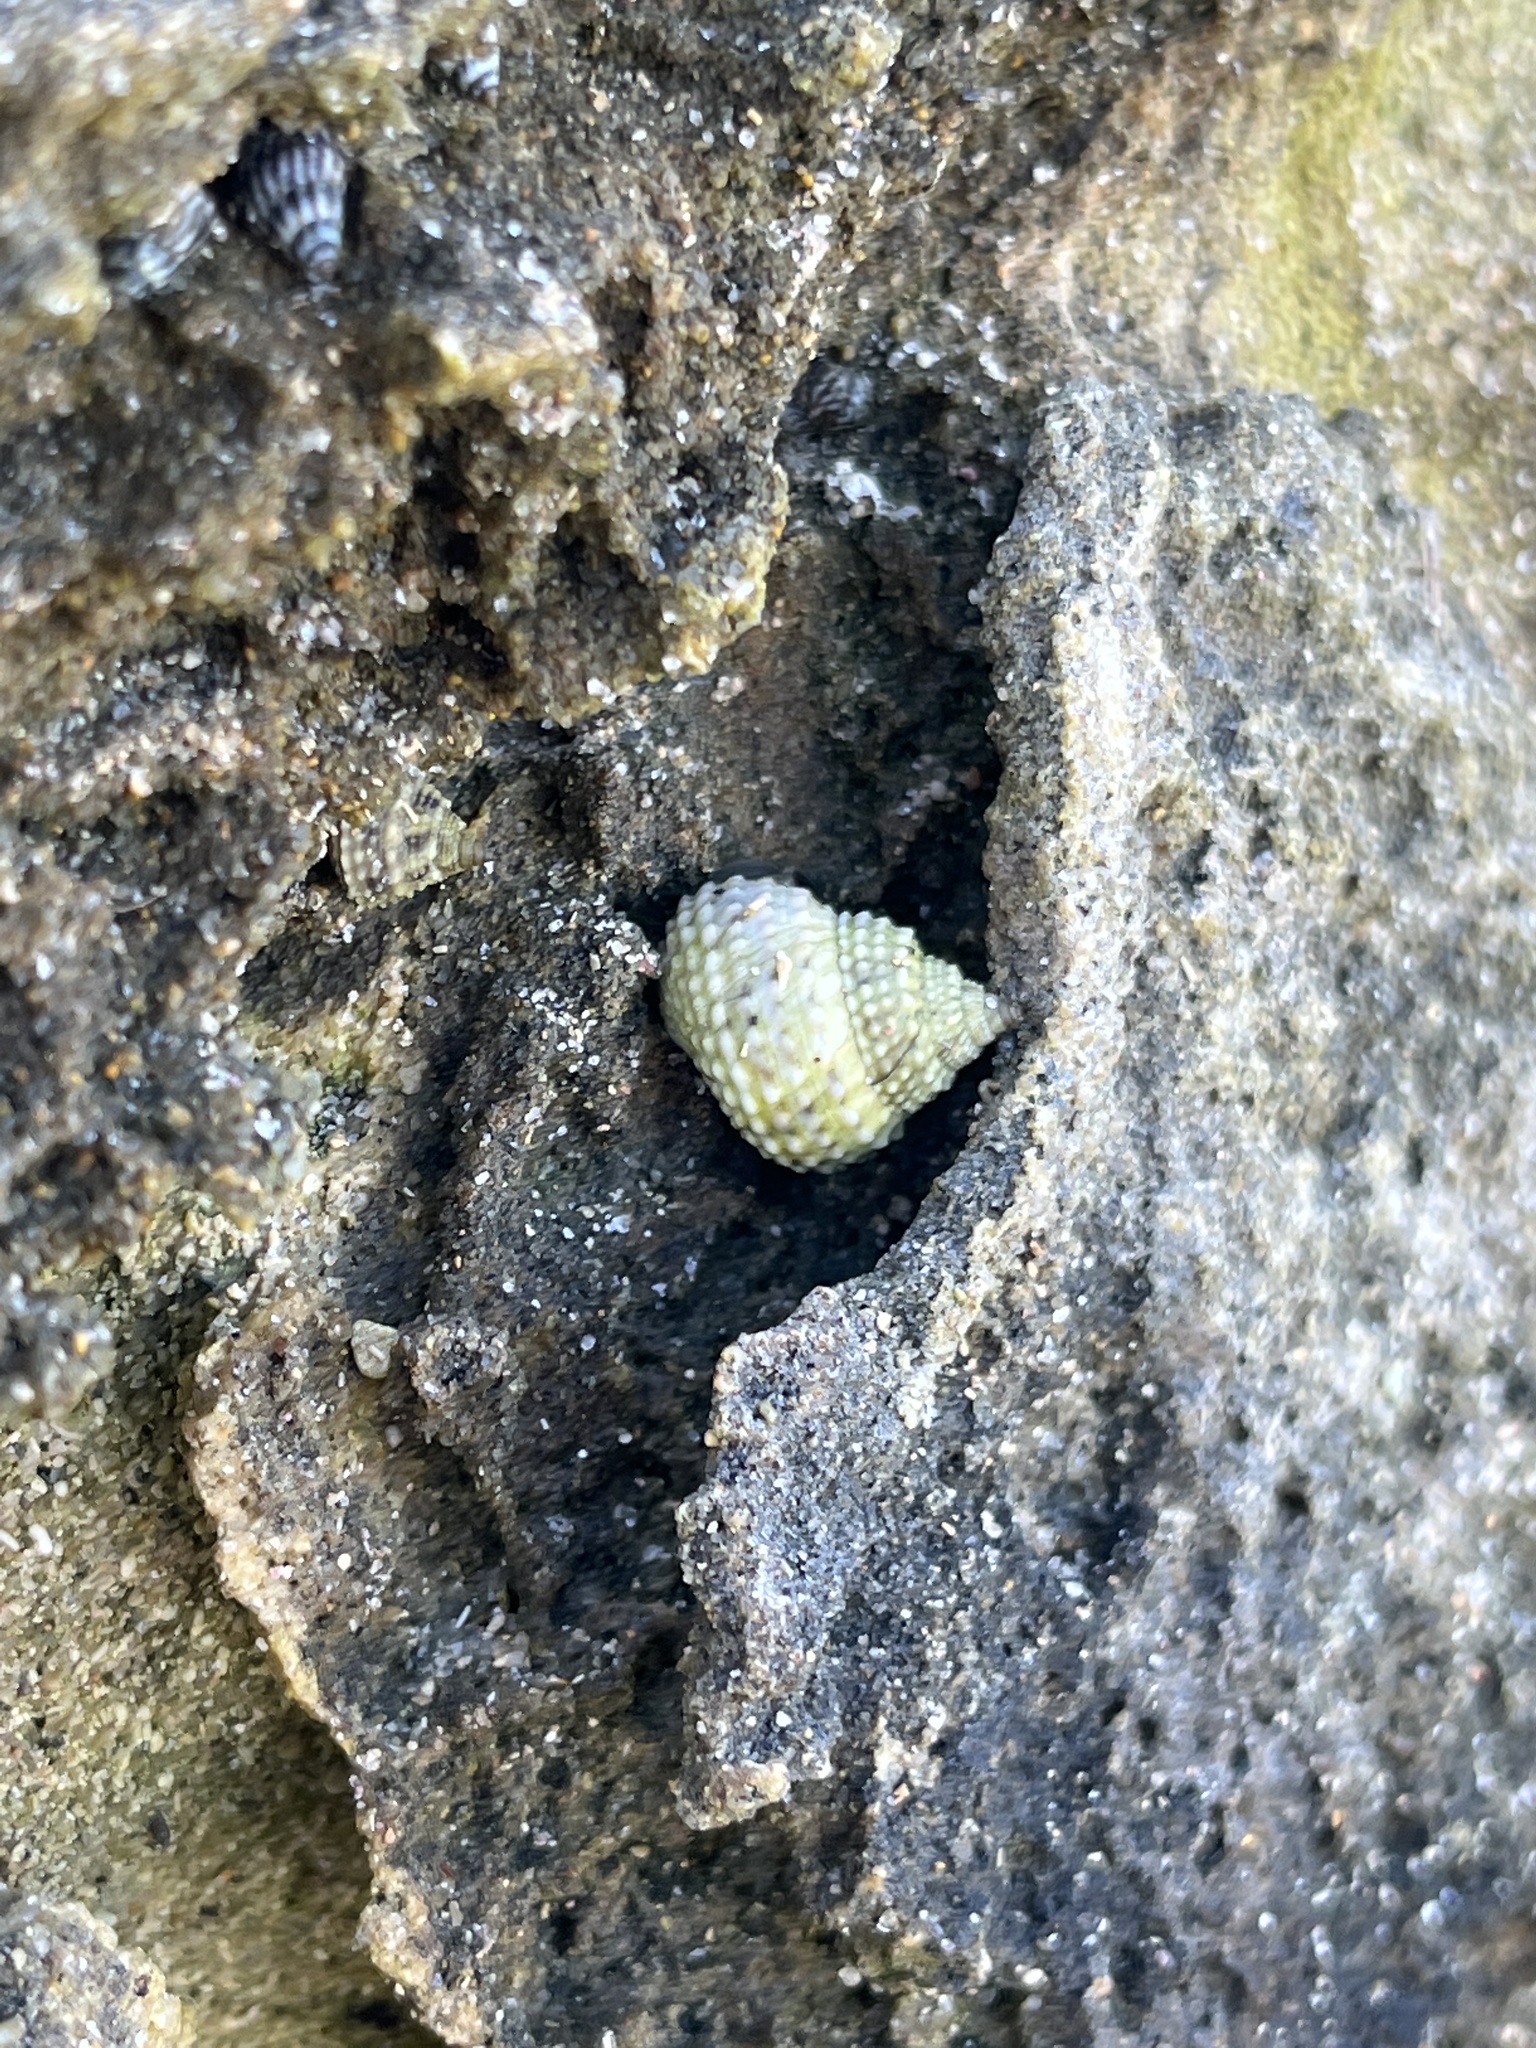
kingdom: Animalia
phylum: Mollusca
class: Gastropoda
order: Littorinimorpha
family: Littorinidae
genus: Cenchritis
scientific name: Cenchritis muricatus
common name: Beaded periwinkle
